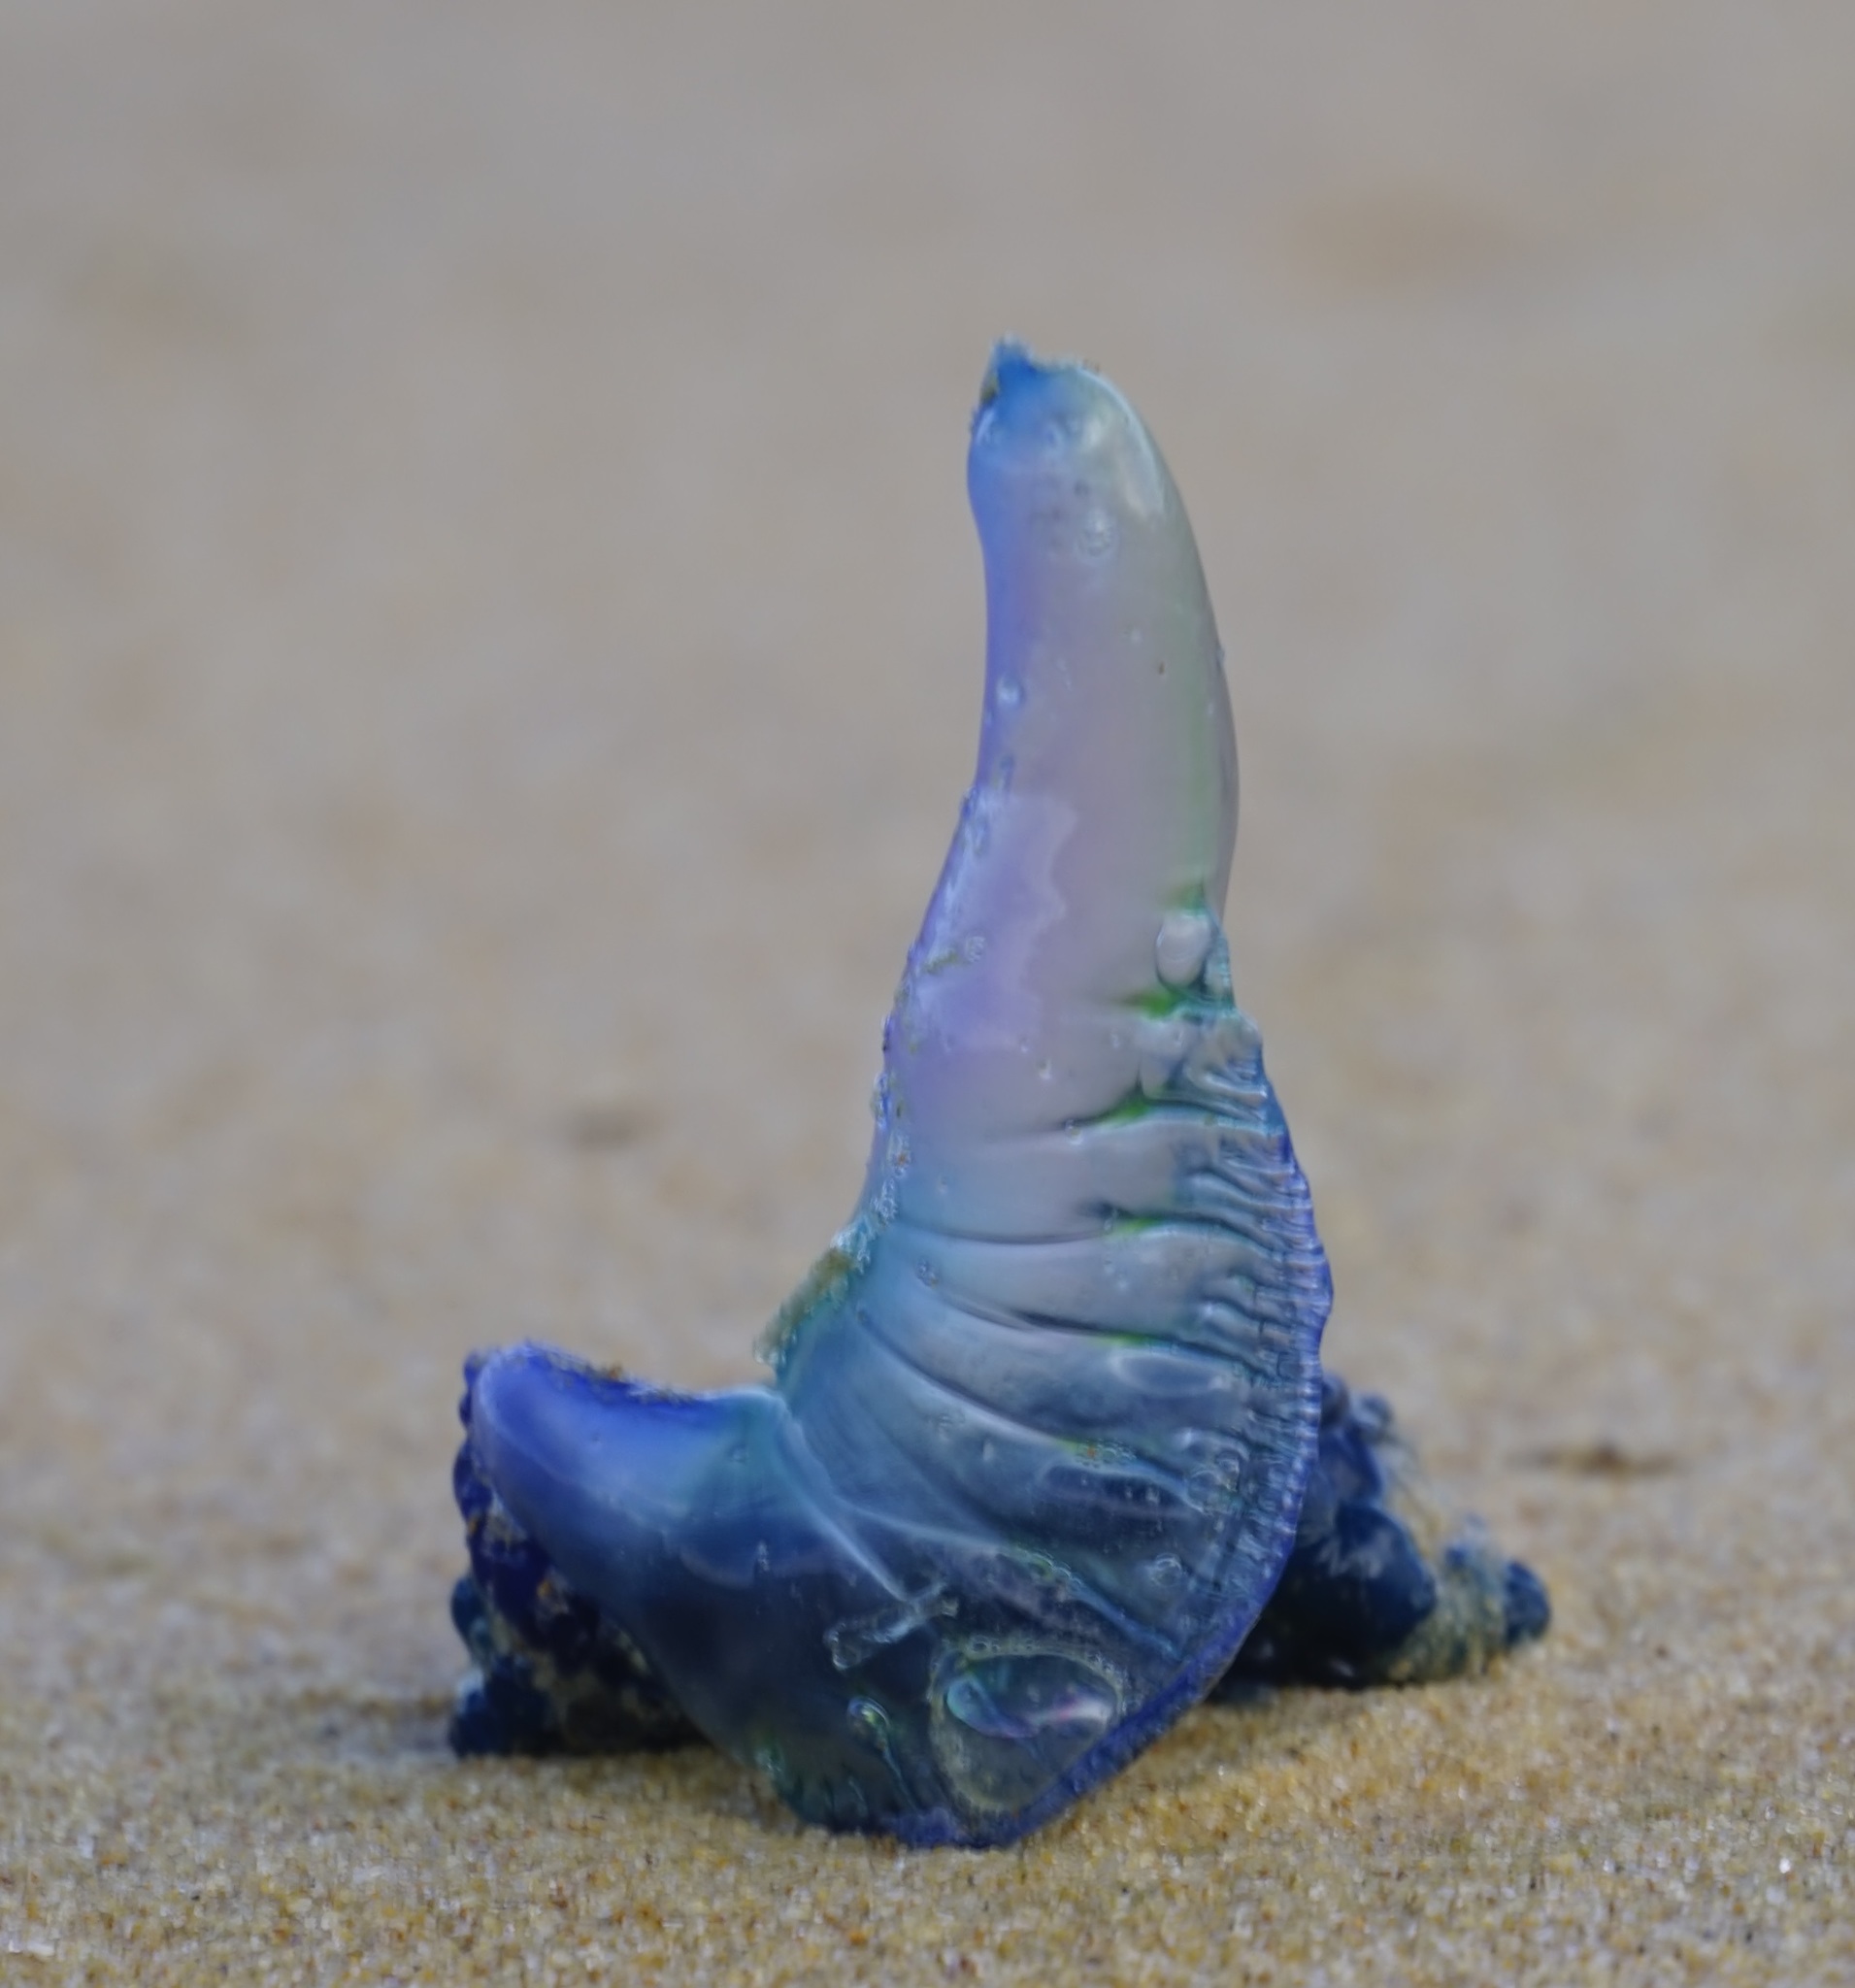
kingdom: Animalia
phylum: Cnidaria
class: Hydrozoa
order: Siphonophorae
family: Physaliidae
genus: Physalia
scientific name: Physalia physalis
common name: Portuguese man-of-war
